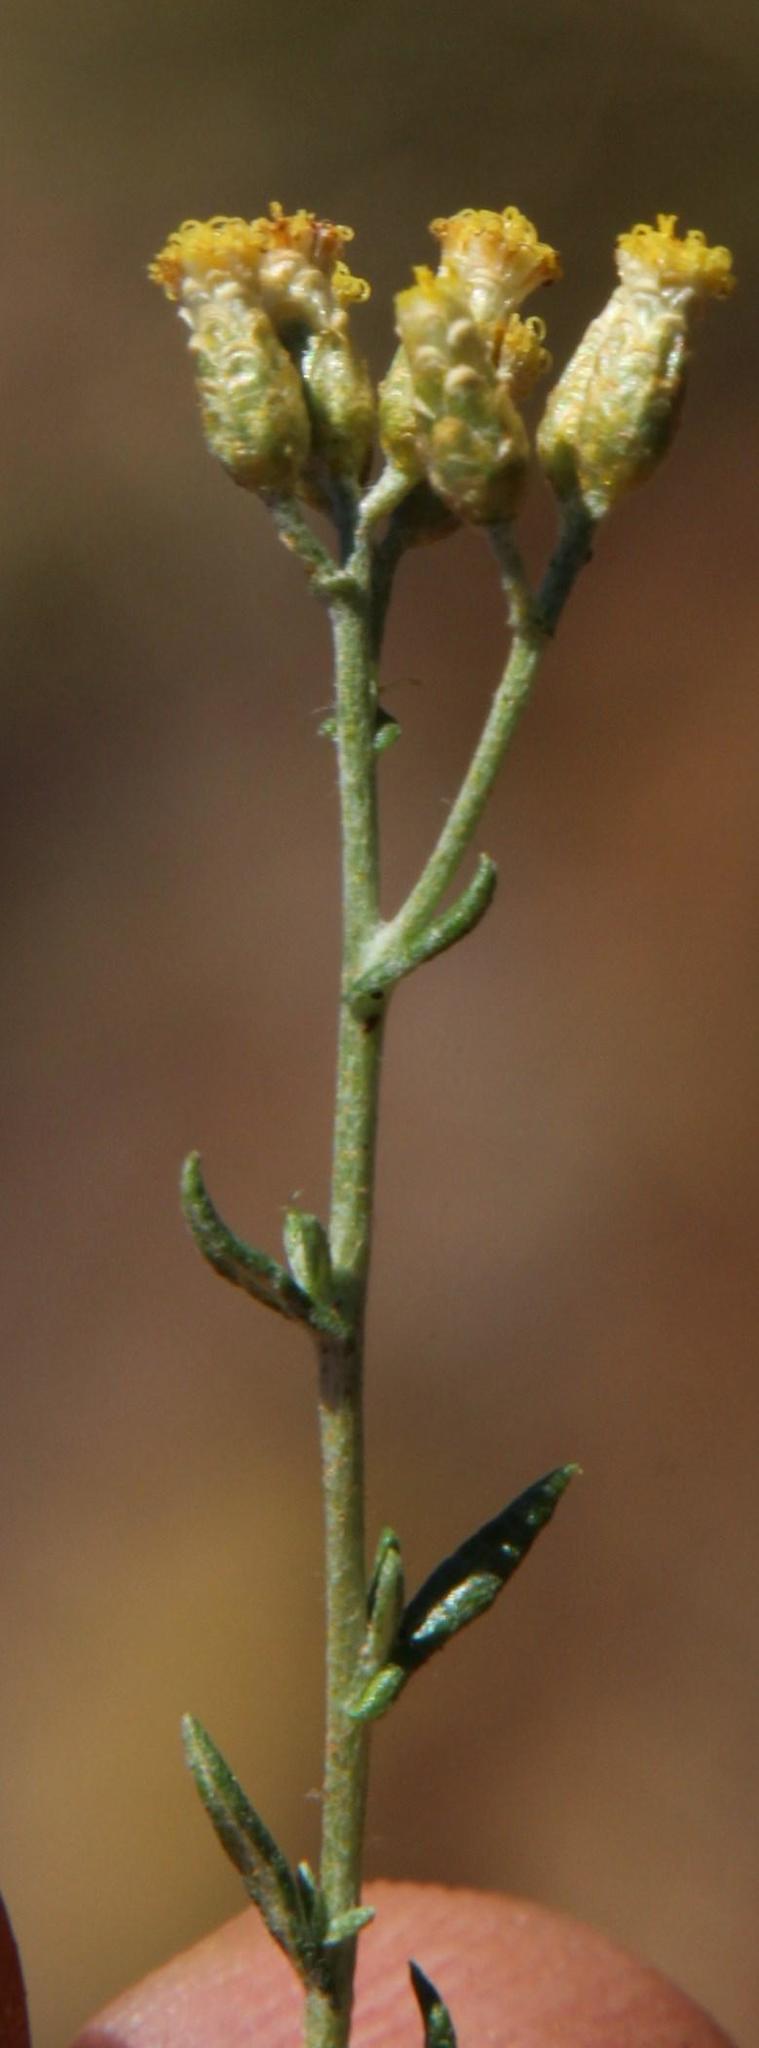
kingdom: Plantae
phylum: Tracheophyta
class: Magnoliopsida
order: Asterales
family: Asteraceae
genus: Helichrysum
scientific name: Helichrysum rosum
